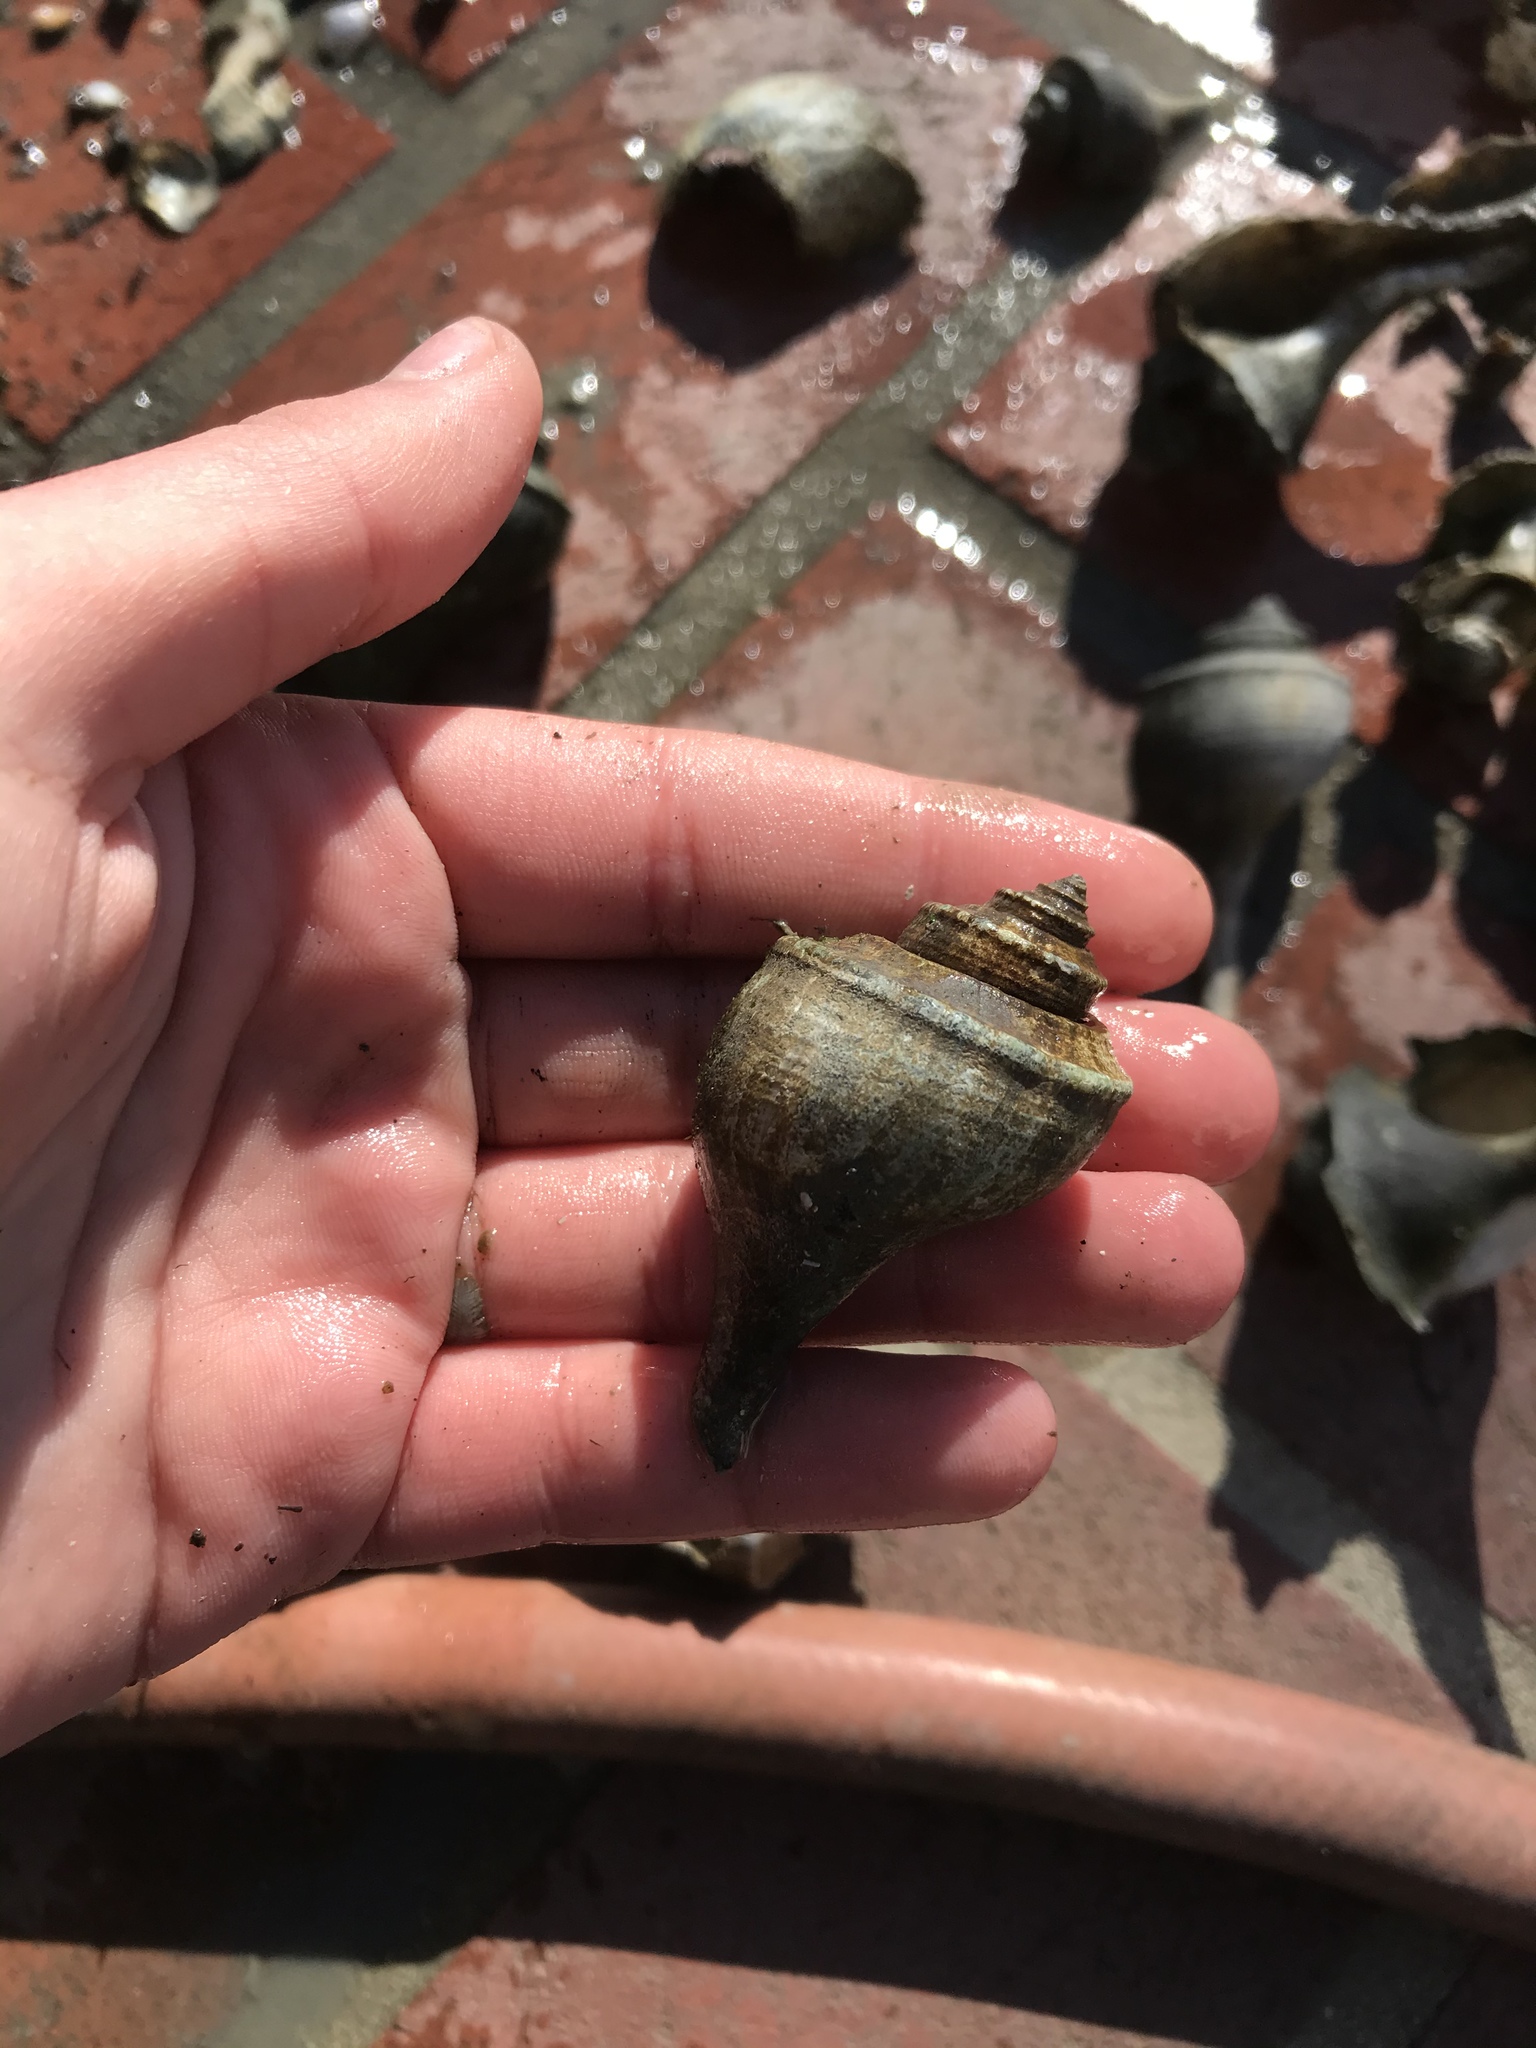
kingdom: Animalia
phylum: Mollusca
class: Gastropoda
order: Neogastropoda
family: Busyconidae
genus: Busycotypus
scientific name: Busycotypus canaliculatus
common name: Channeled whelk
